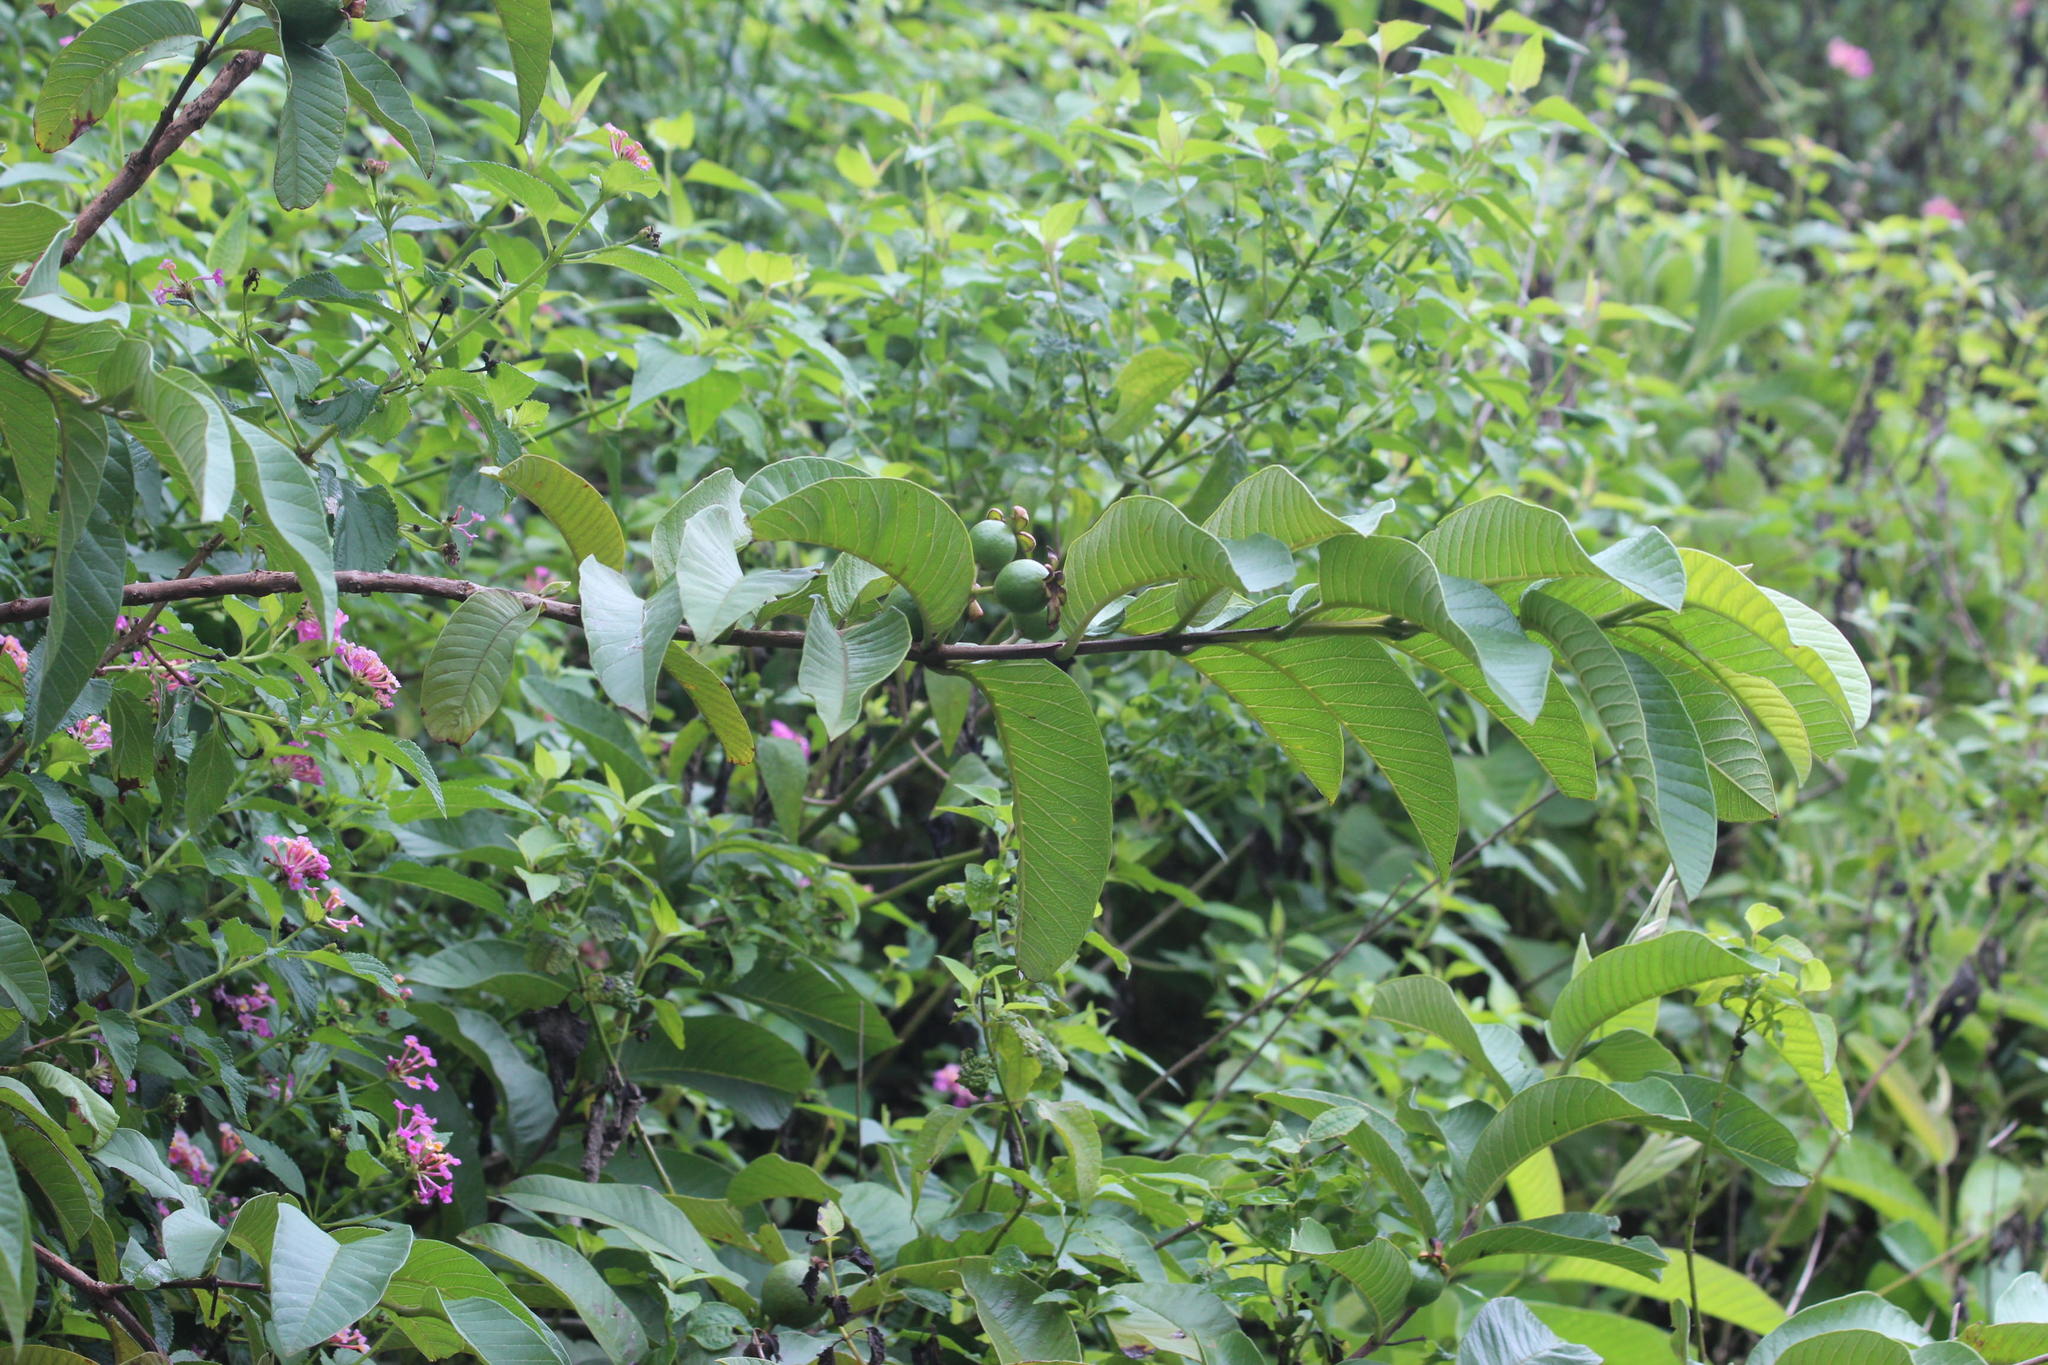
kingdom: Plantae
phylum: Tracheophyta
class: Magnoliopsida
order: Myrtales
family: Myrtaceae
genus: Psidium
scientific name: Psidium guajava
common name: Guava
